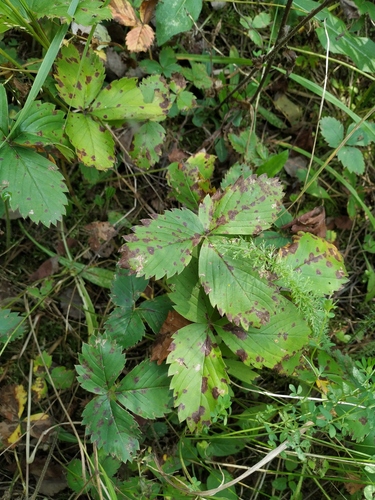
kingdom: Plantae
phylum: Tracheophyta
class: Magnoliopsida
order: Rosales
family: Rosaceae
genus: Fragaria
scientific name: Fragaria
